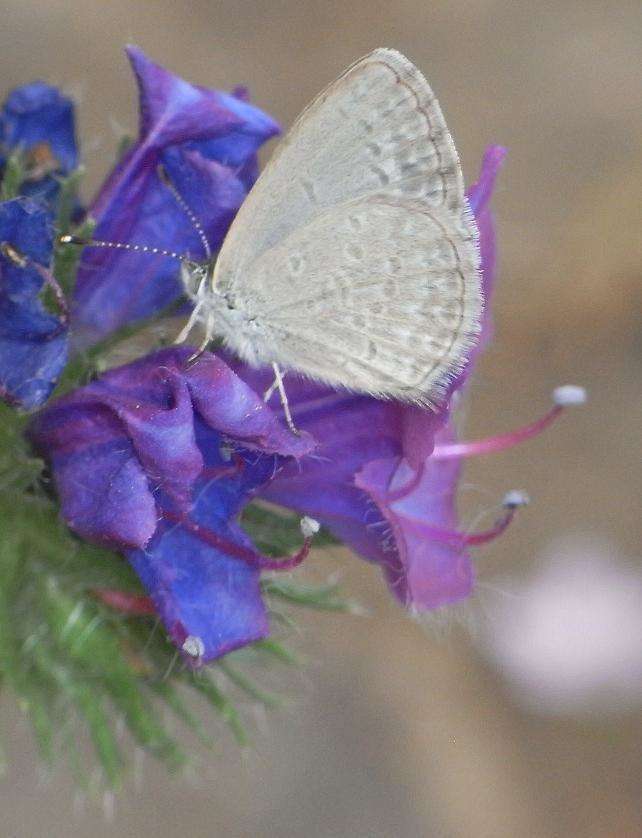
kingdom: Animalia
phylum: Arthropoda
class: Insecta
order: Lepidoptera
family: Lycaenidae
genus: Zizina
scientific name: Zizina labradus
